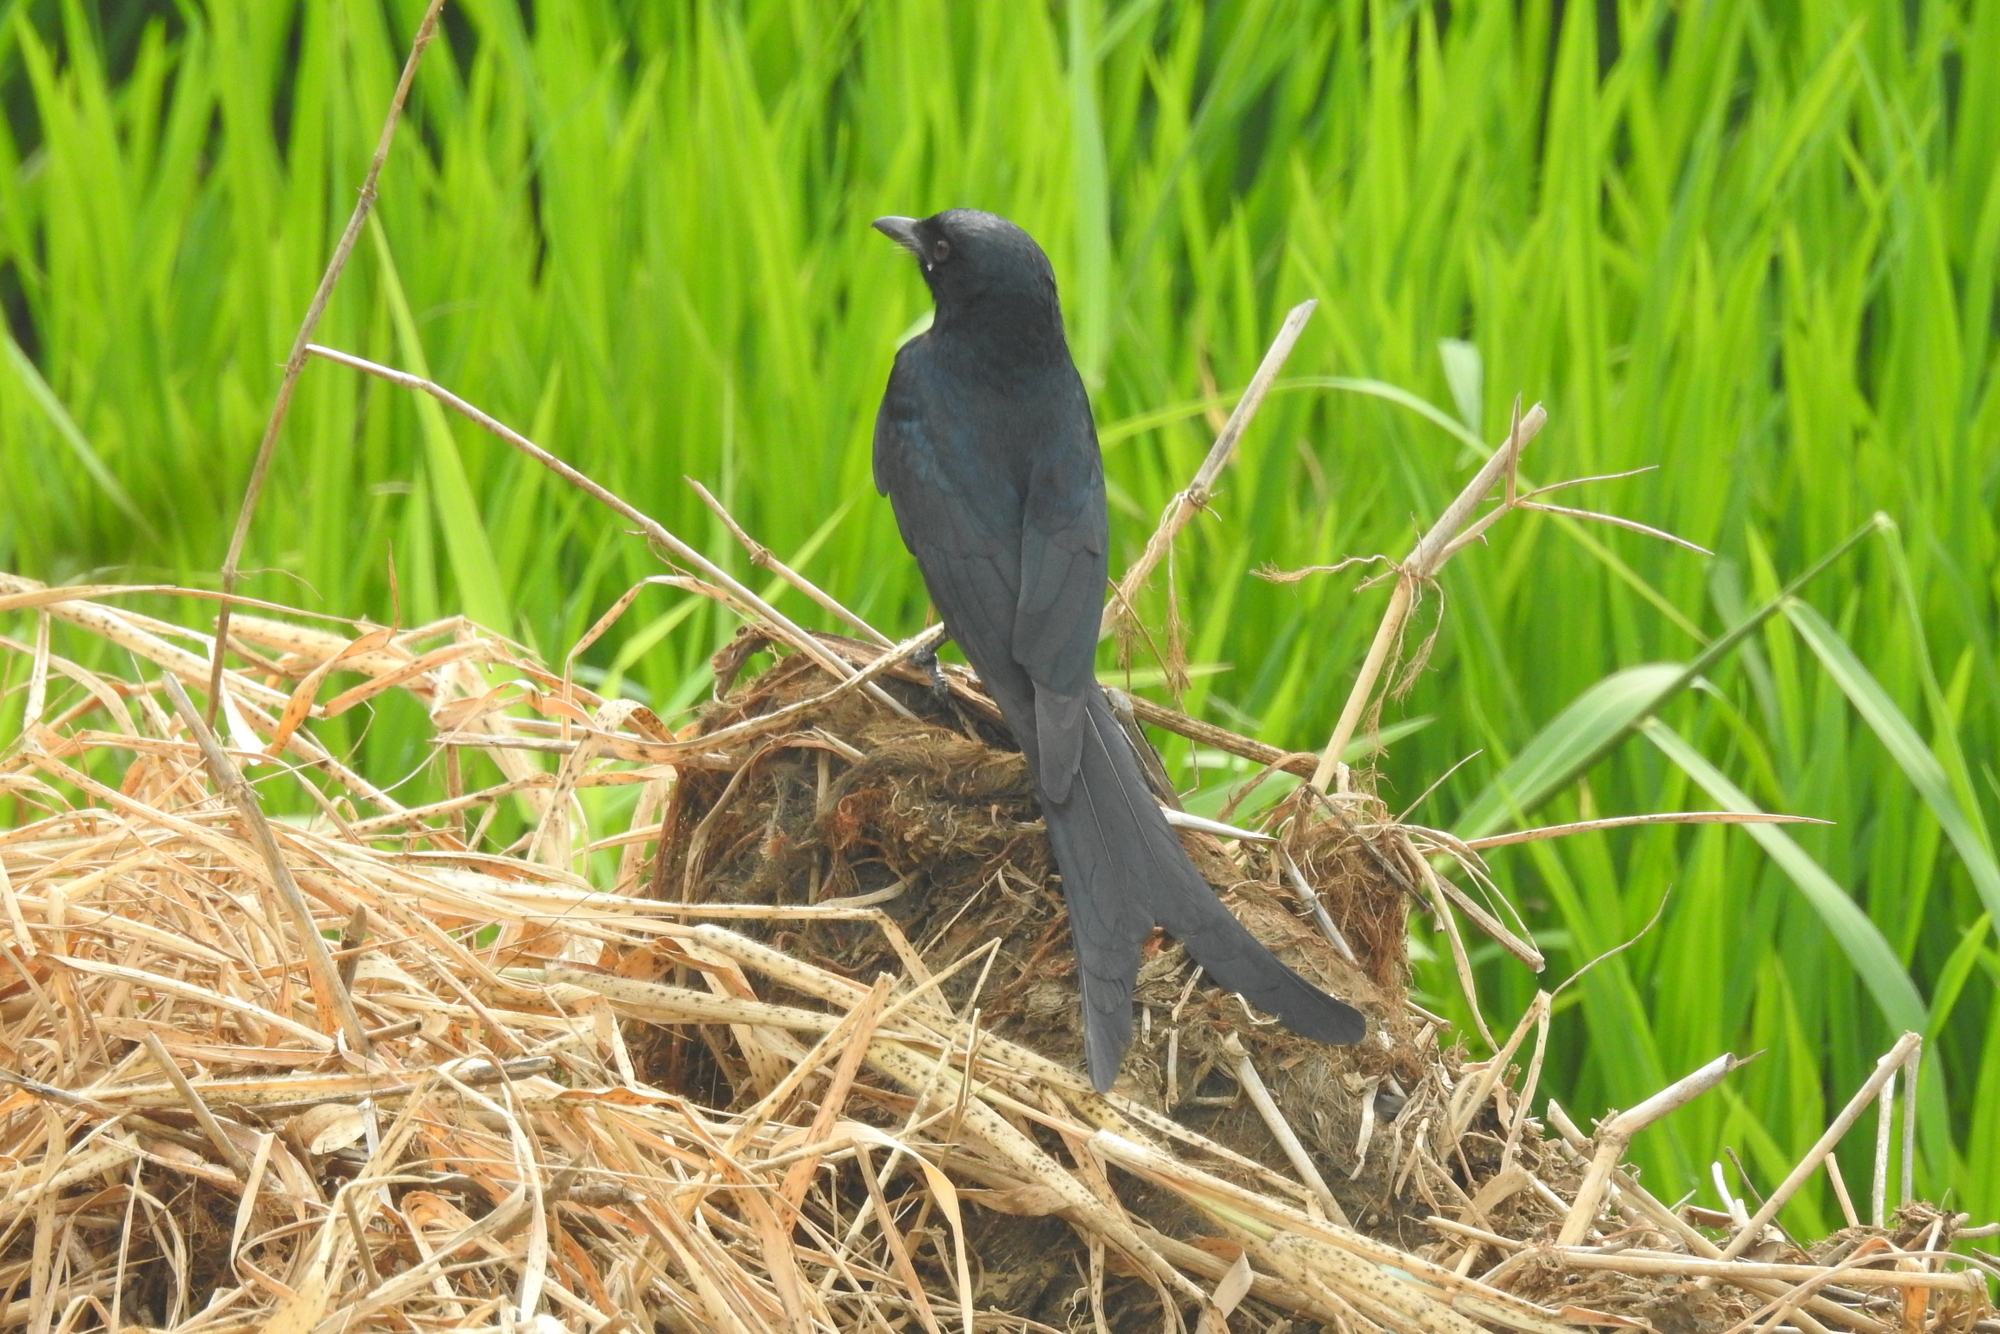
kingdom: Animalia
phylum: Chordata
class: Aves
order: Passeriformes
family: Dicruridae
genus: Dicrurus
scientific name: Dicrurus macrocercus
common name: Black drongo
